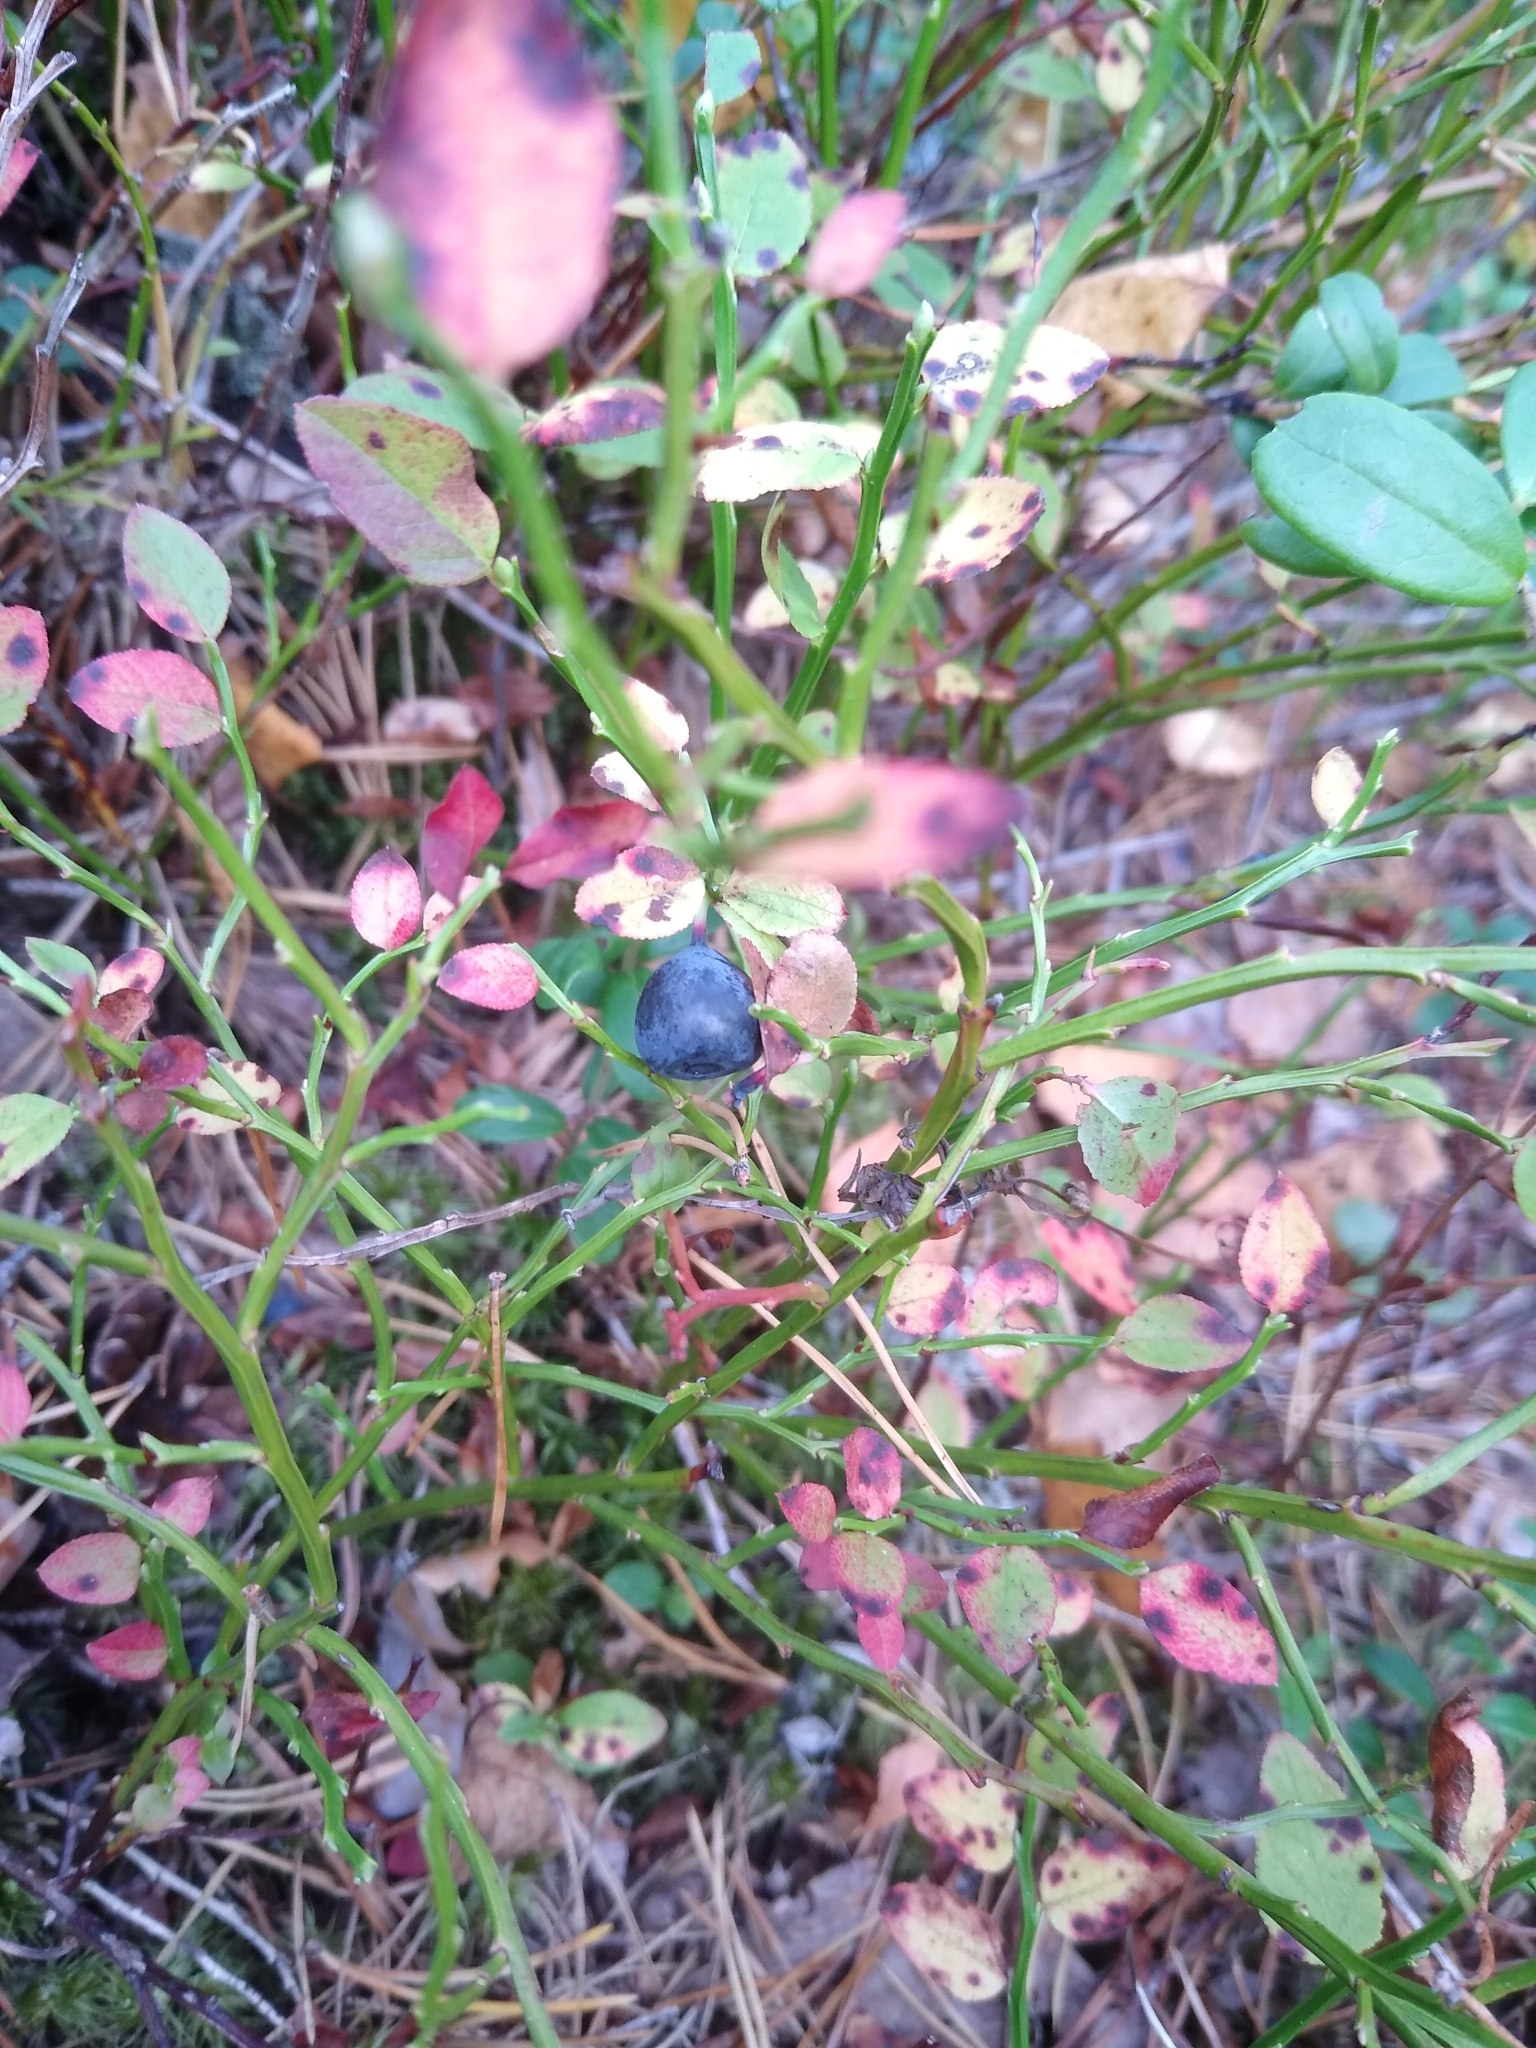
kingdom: Plantae
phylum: Tracheophyta
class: Magnoliopsida
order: Ericales
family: Ericaceae
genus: Vaccinium
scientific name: Vaccinium myrtillus
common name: Bilberry
